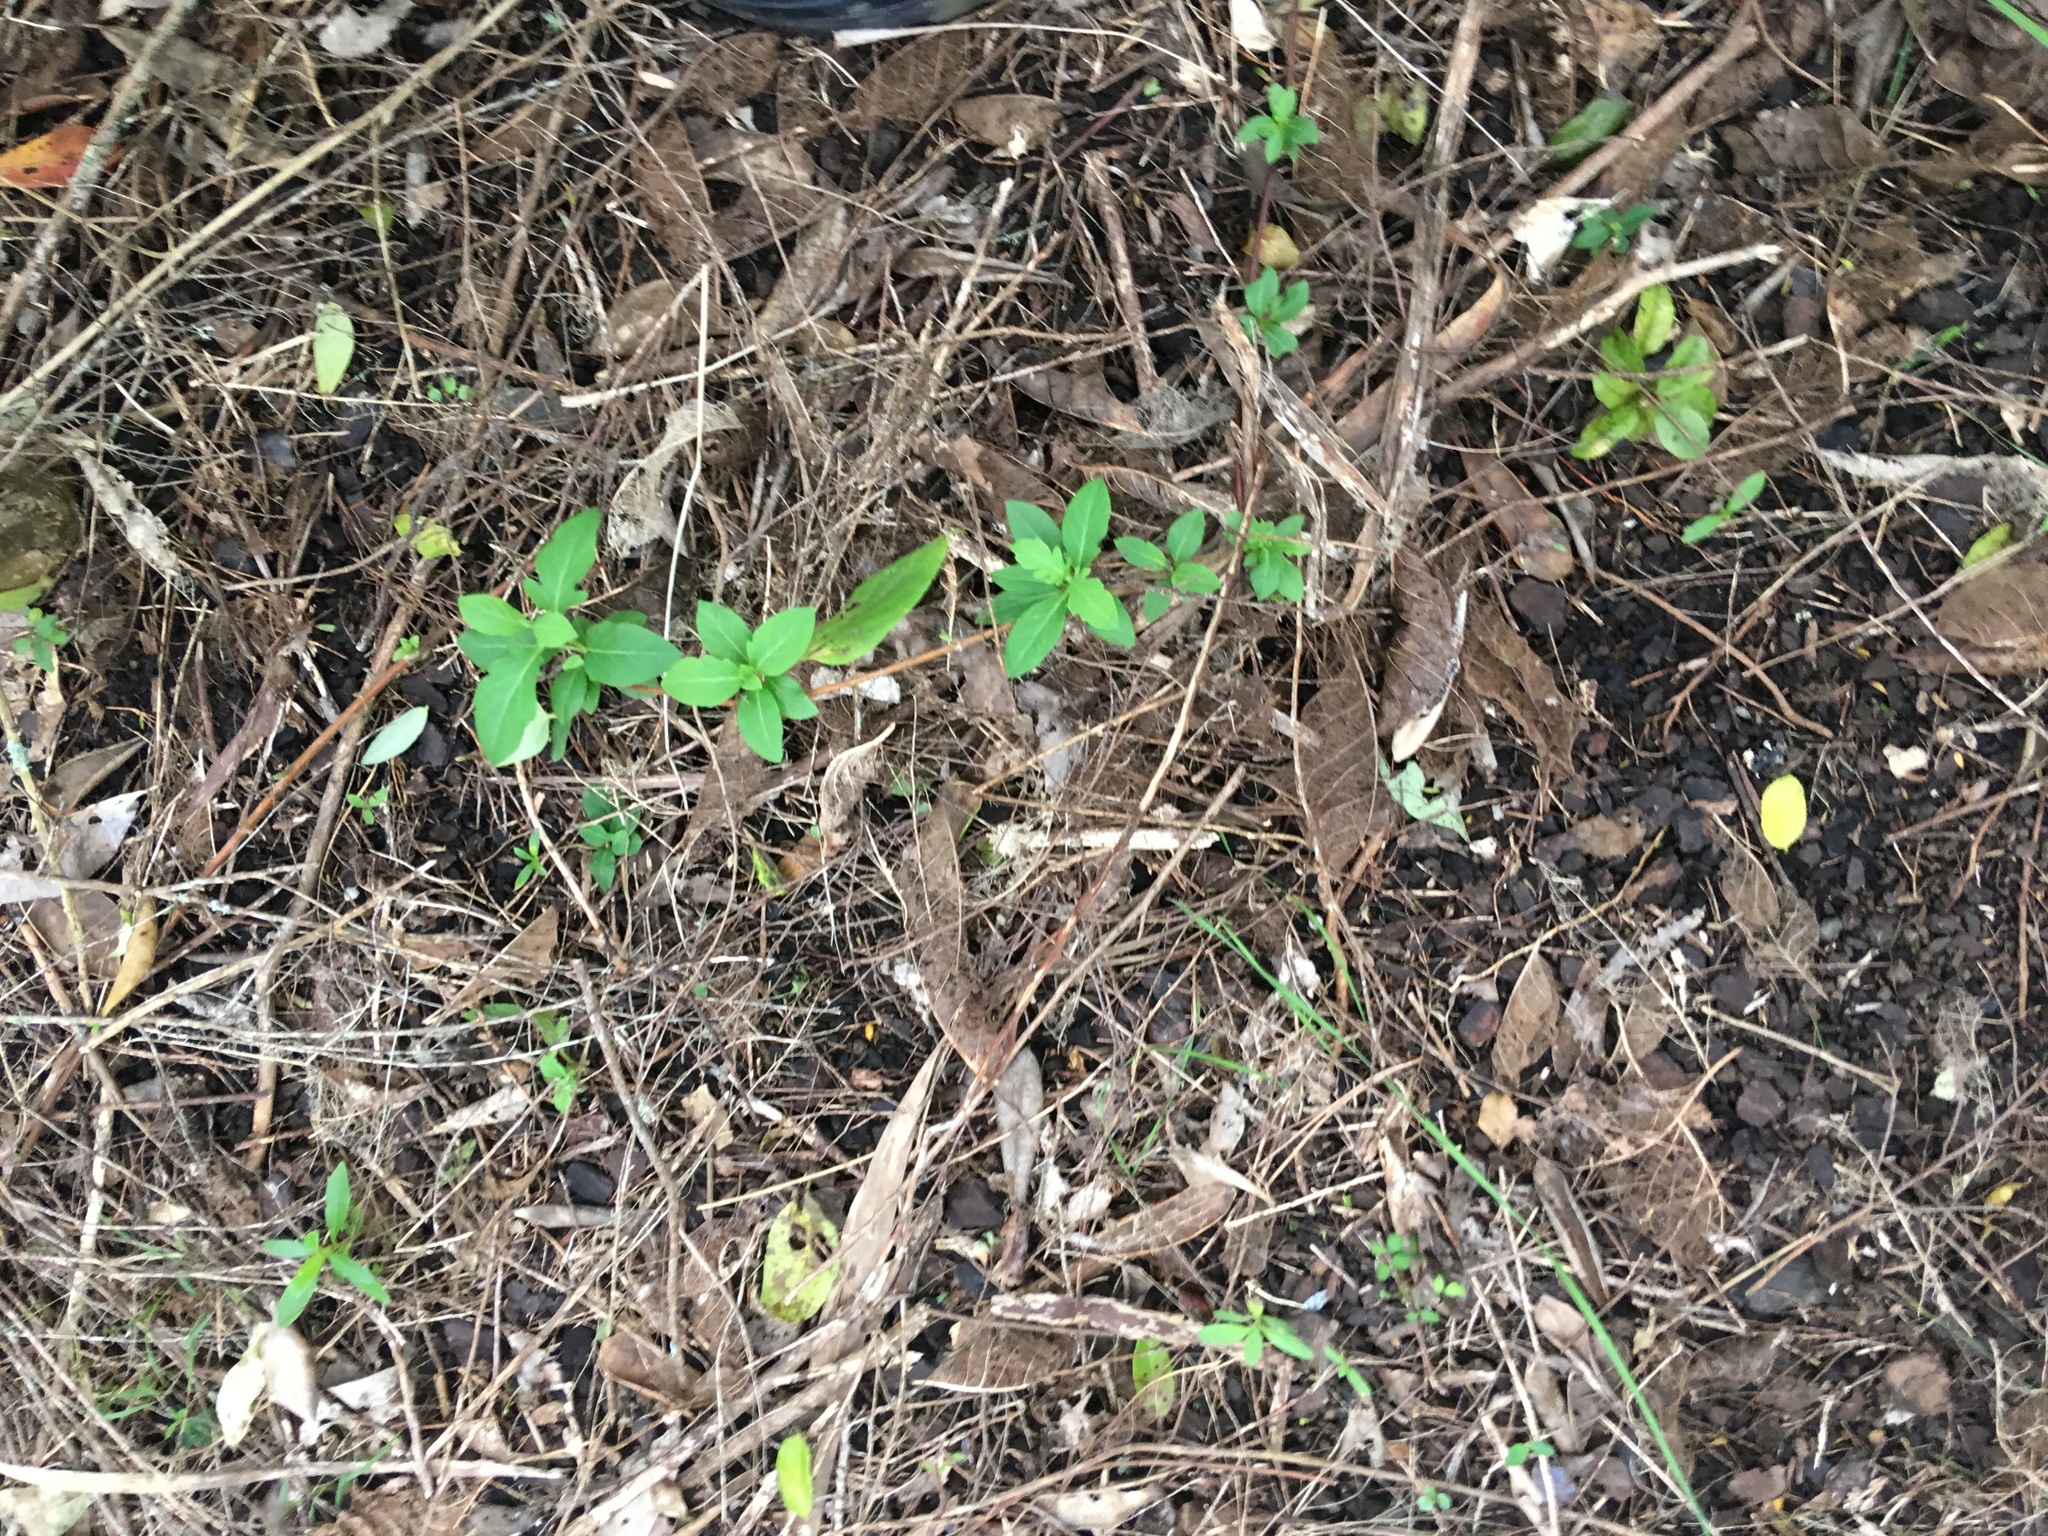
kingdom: Plantae
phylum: Tracheophyta
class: Magnoliopsida
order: Ericales
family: Primulaceae
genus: Myrsine
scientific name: Myrsine australis
